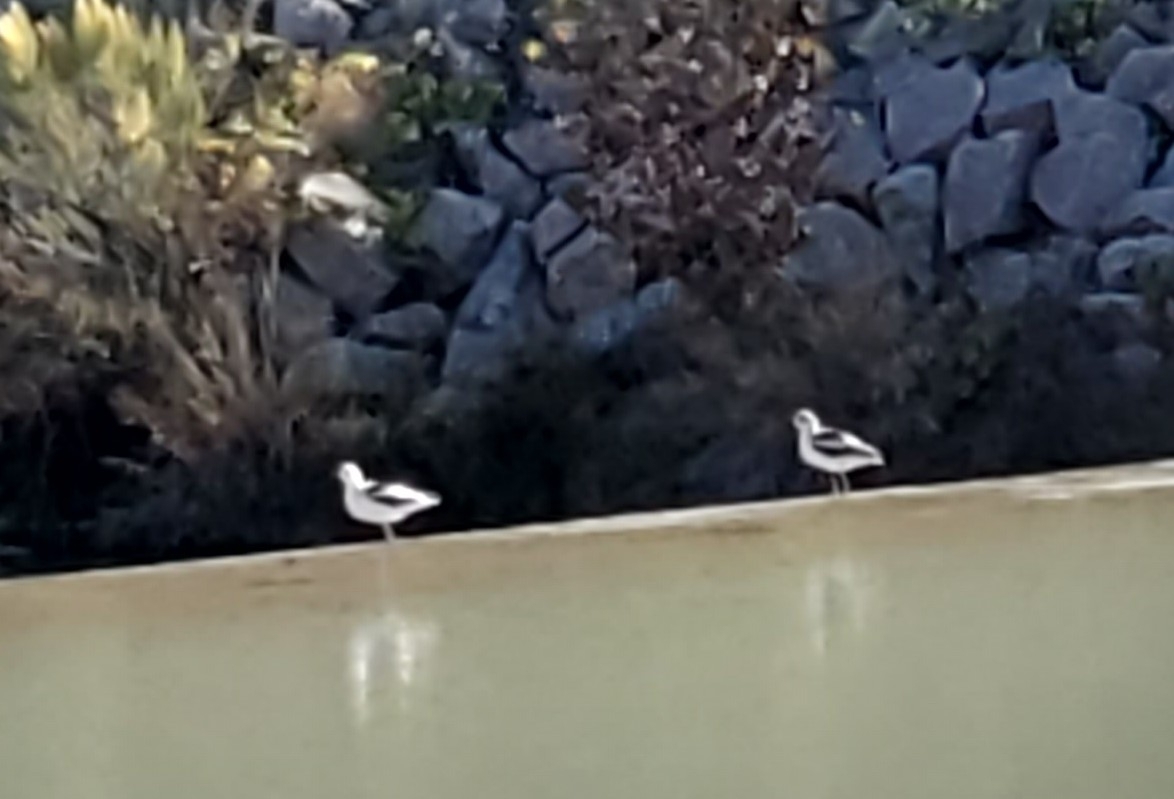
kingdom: Animalia
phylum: Chordata
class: Aves
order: Charadriiformes
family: Recurvirostridae
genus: Recurvirostra
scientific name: Recurvirostra americana
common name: American avocet
